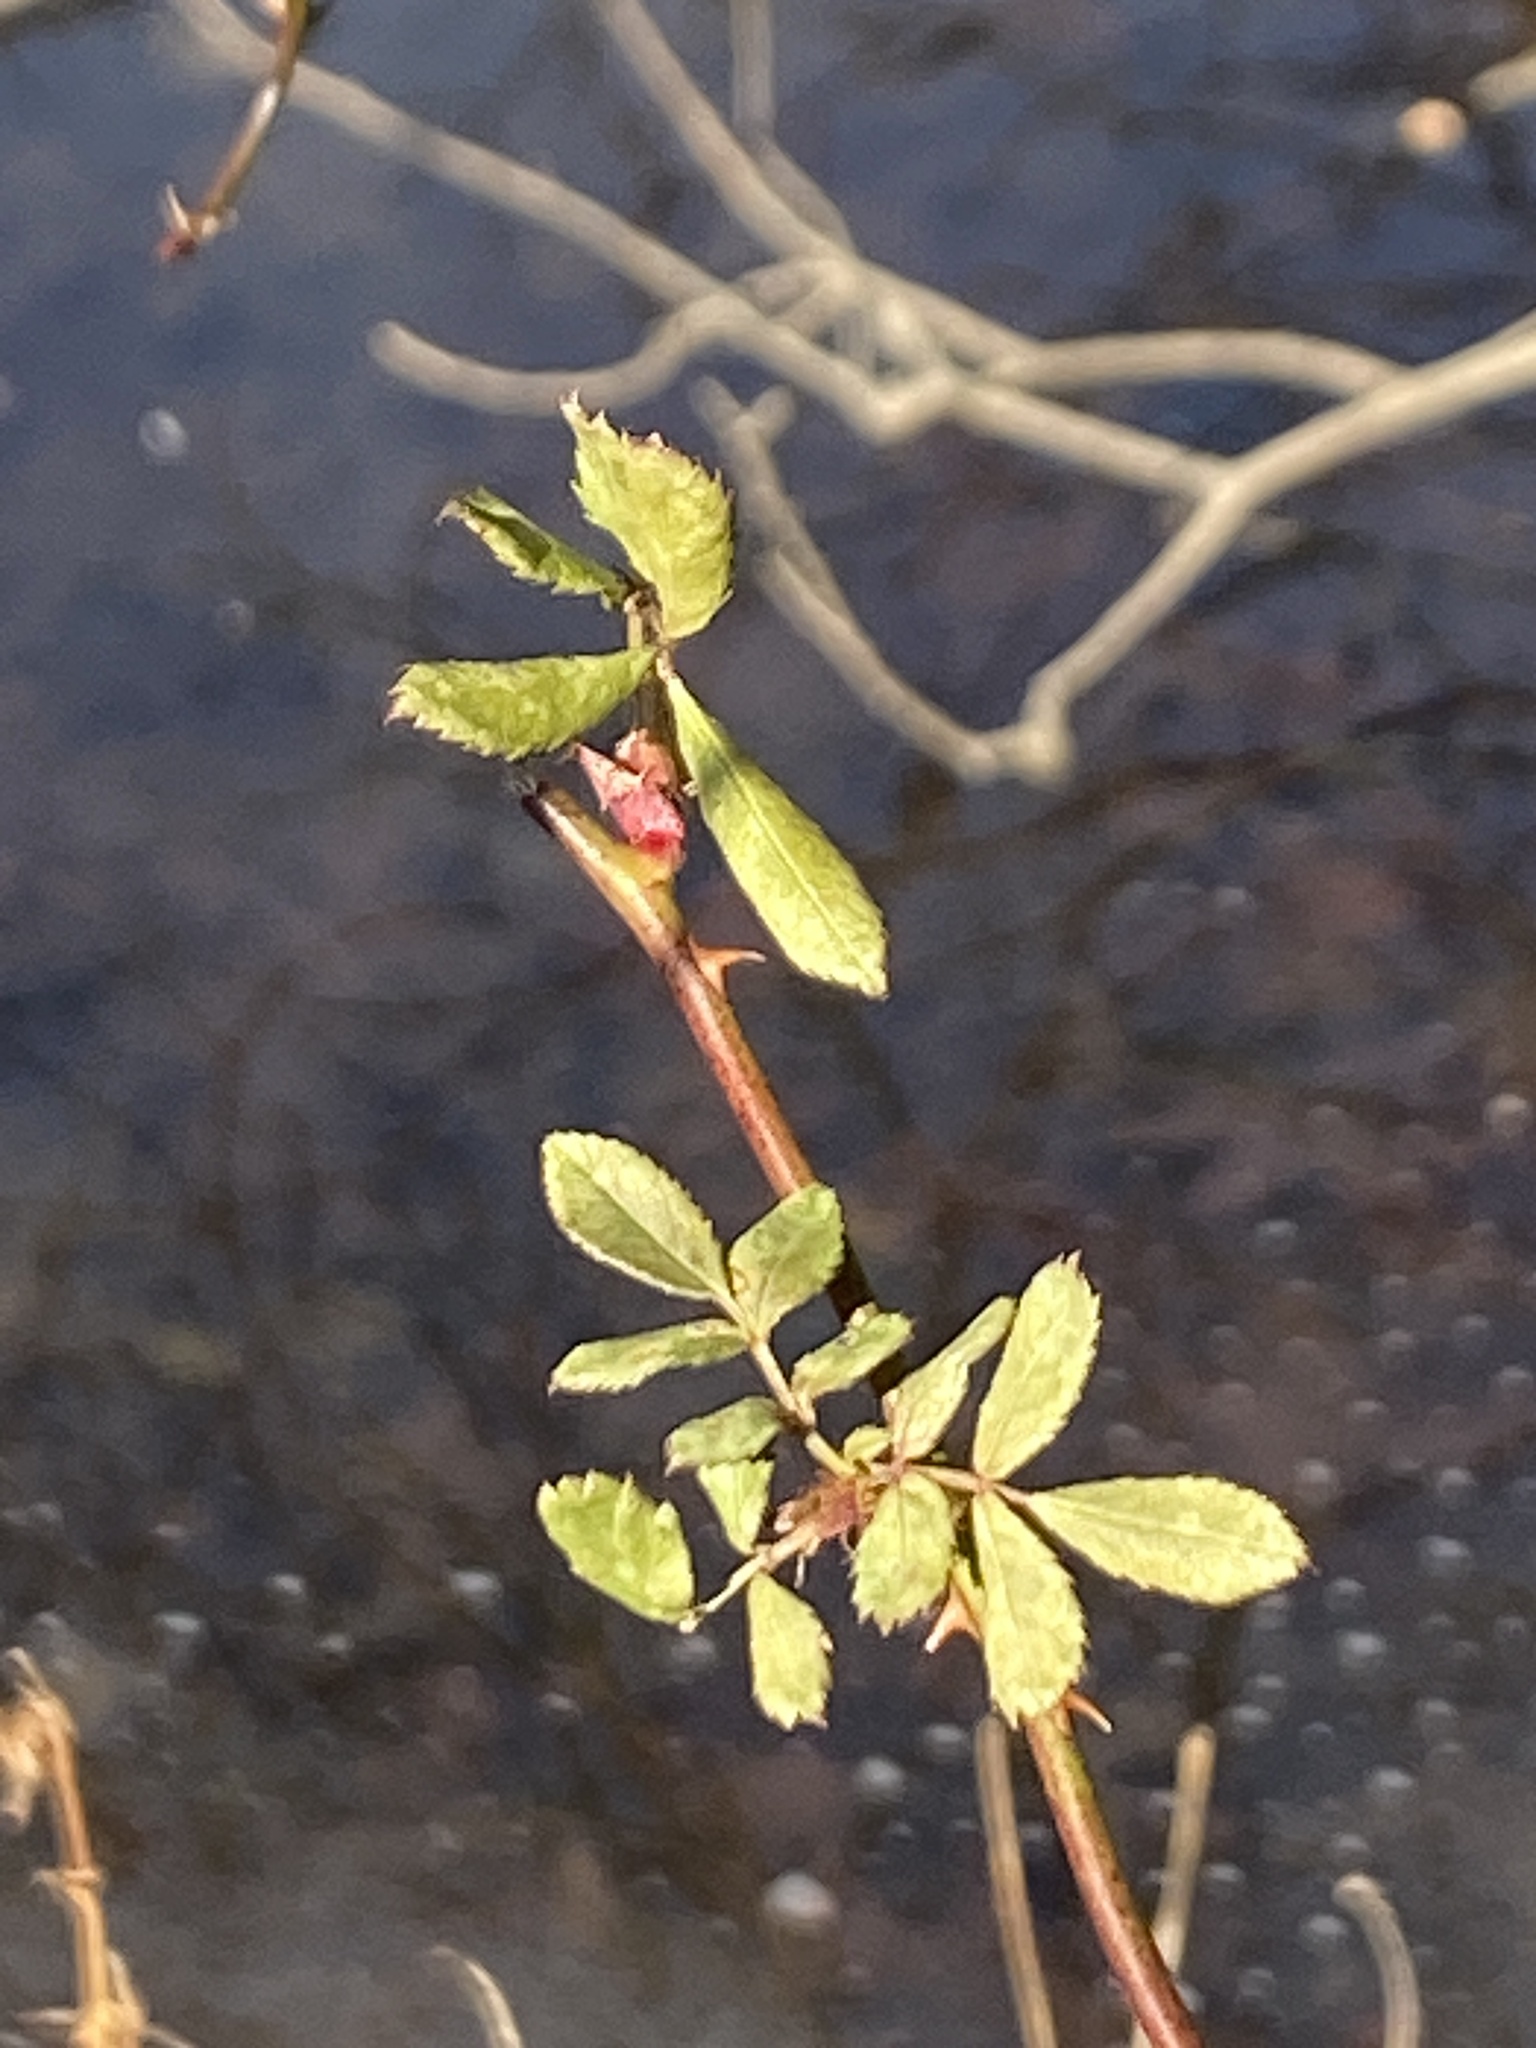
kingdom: Plantae
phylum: Tracheophyta
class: Magnoliopsida
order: Rosales
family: Rosaceae
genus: Rosa
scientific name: Rosa multiflora
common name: Multiflora rose
